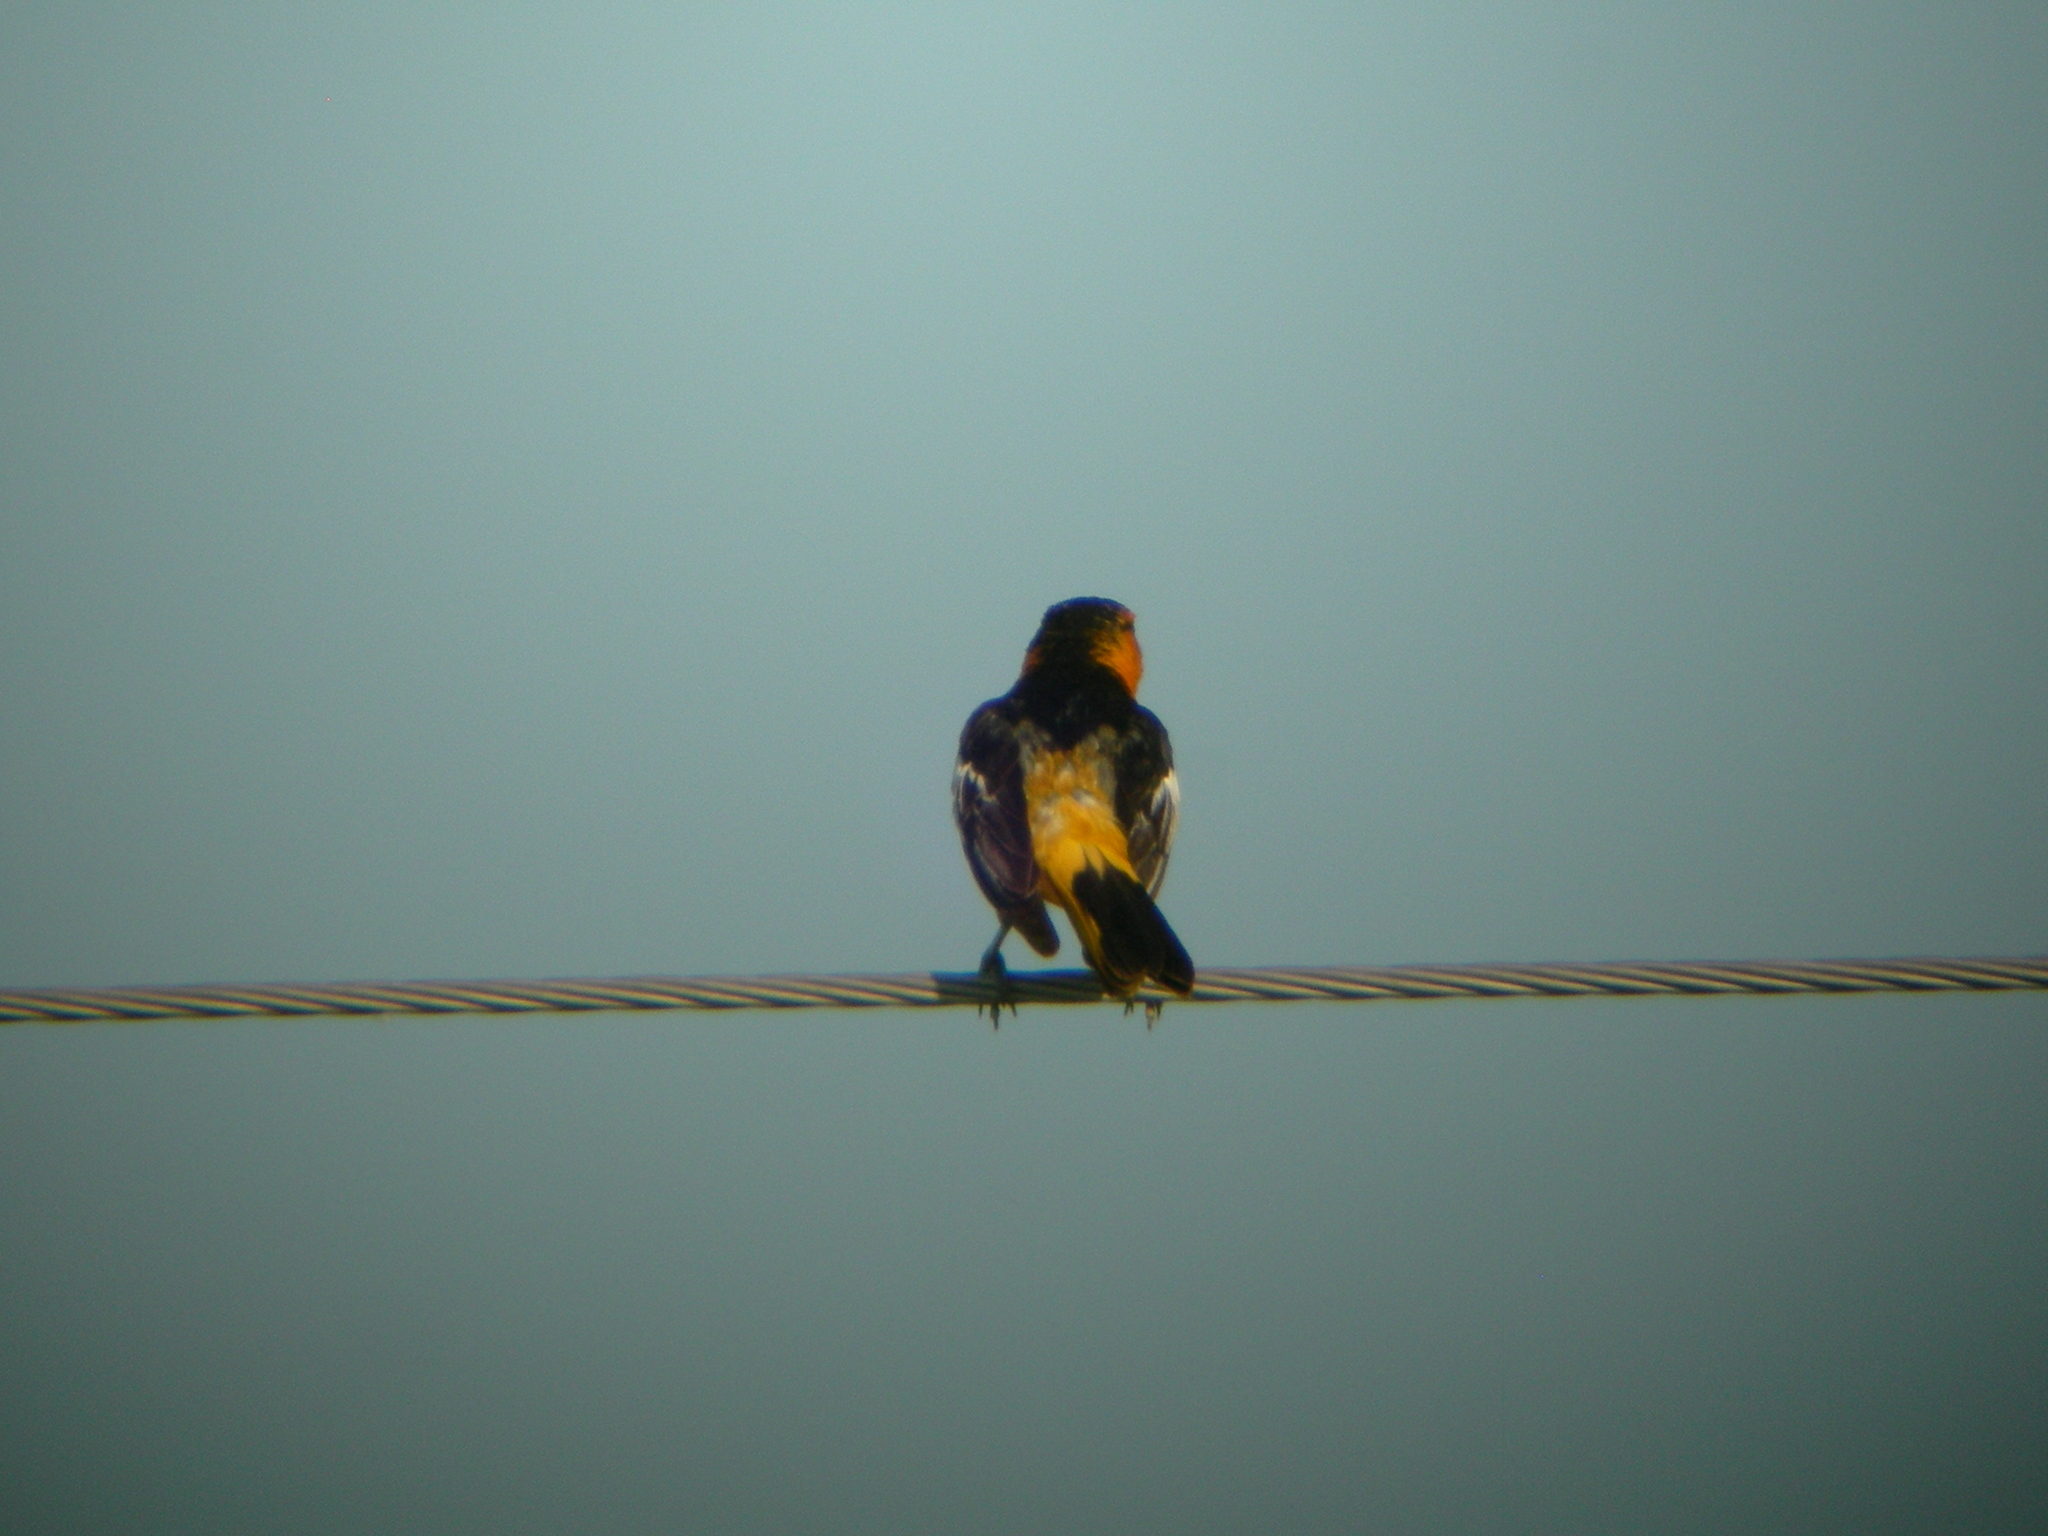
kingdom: Animalia
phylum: Chordata
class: Aves
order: Passeriformes
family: Icteridae
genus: Icterus
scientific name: Icterus bullockii
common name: Bullock's oriole
